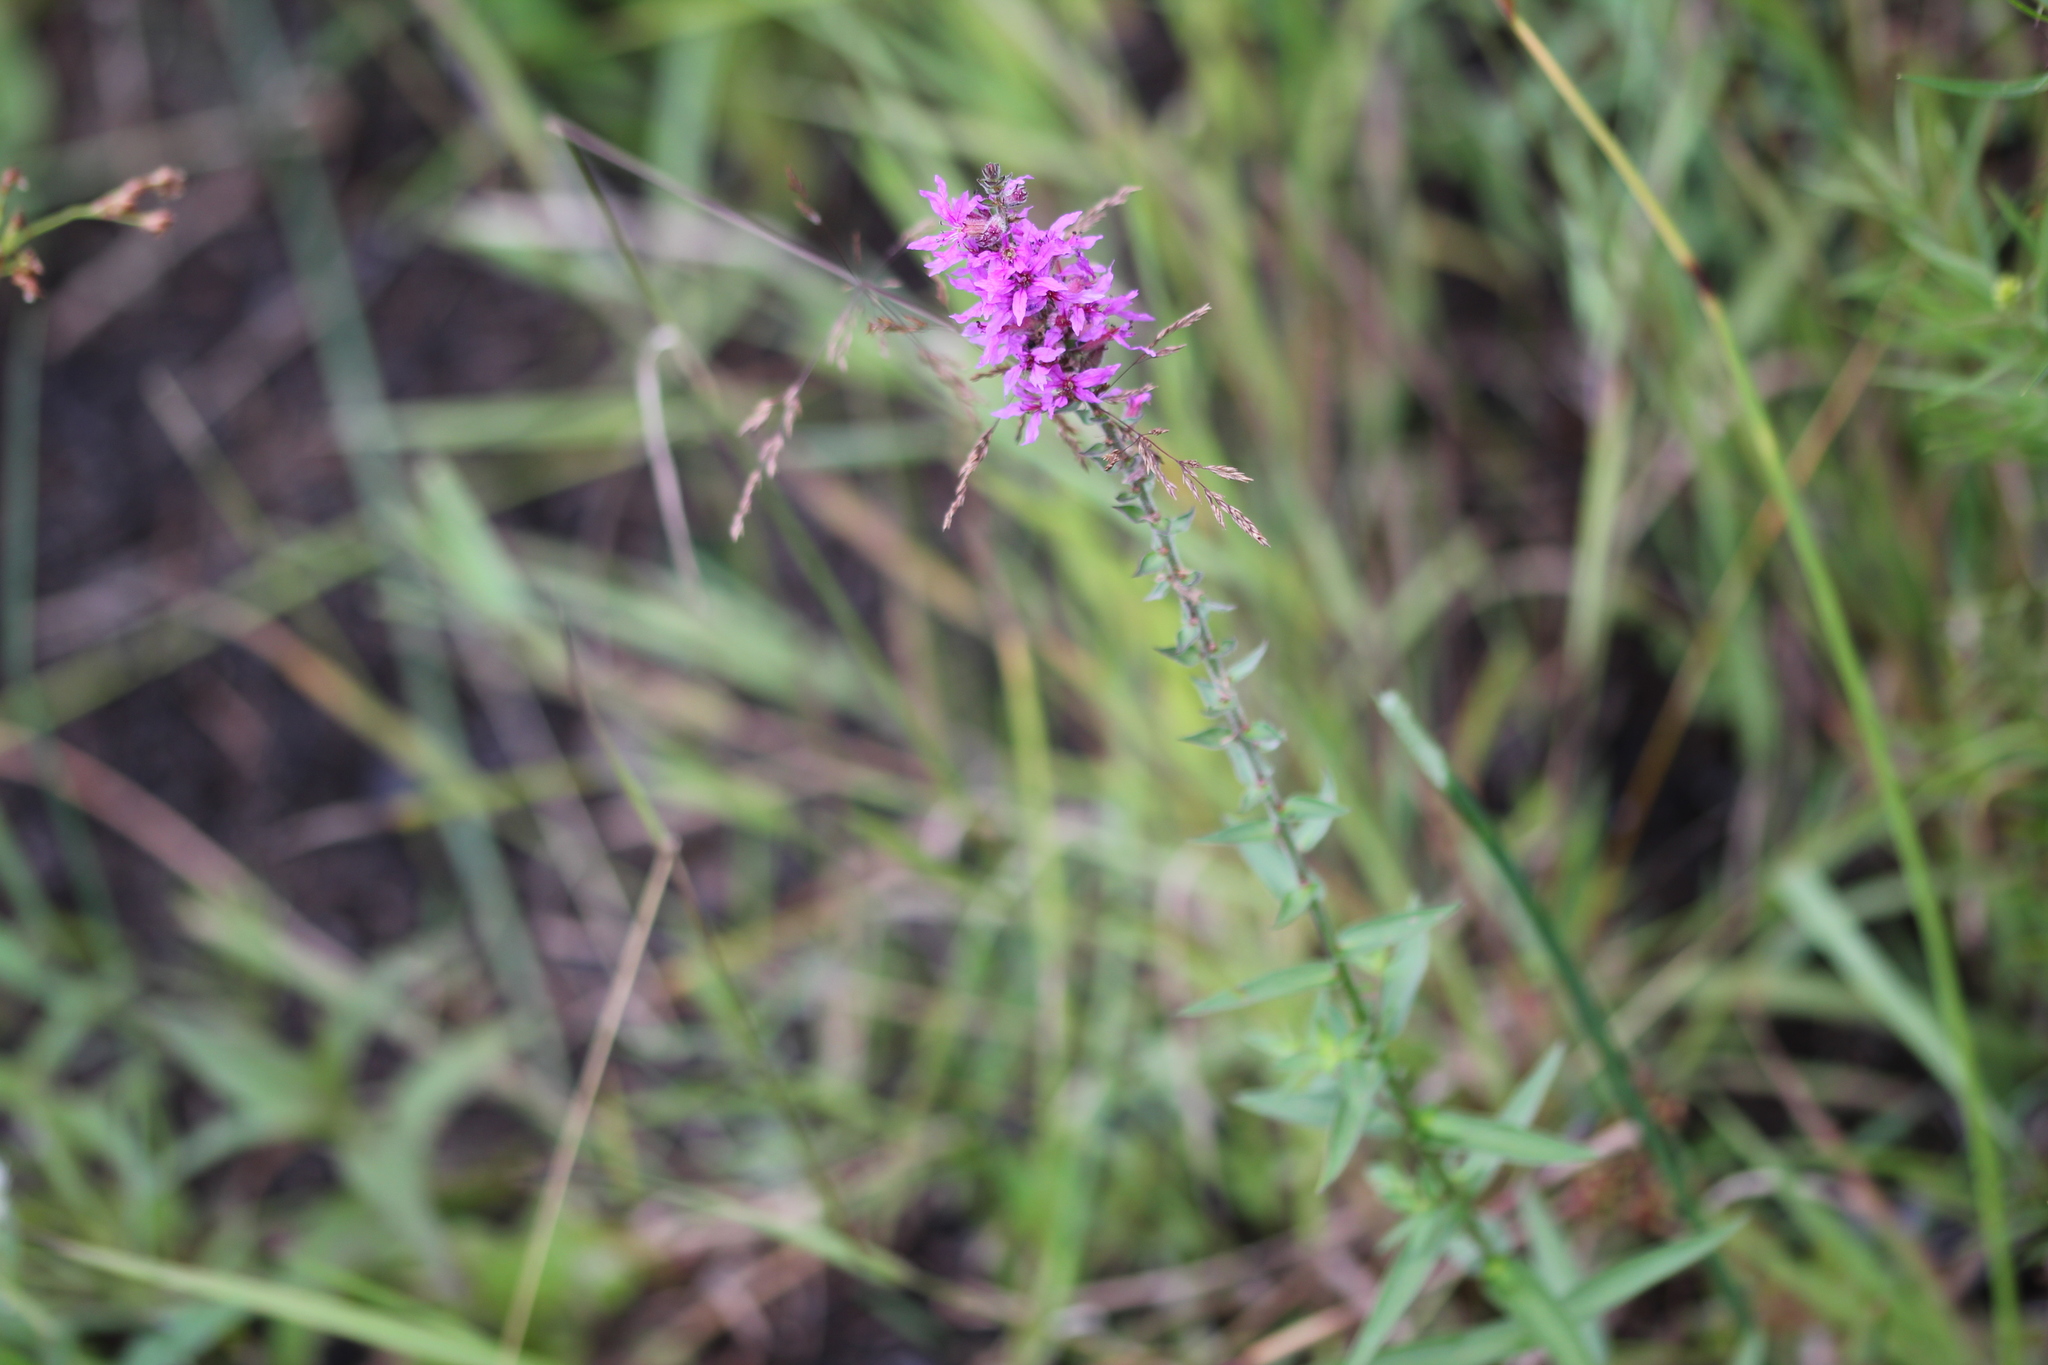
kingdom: Plantae
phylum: Tracheophyta
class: Magnoliopsida
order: Myrtales
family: Lythraceae
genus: Lythrum
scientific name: Lythrum salicaria
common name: Purple loosestrife
